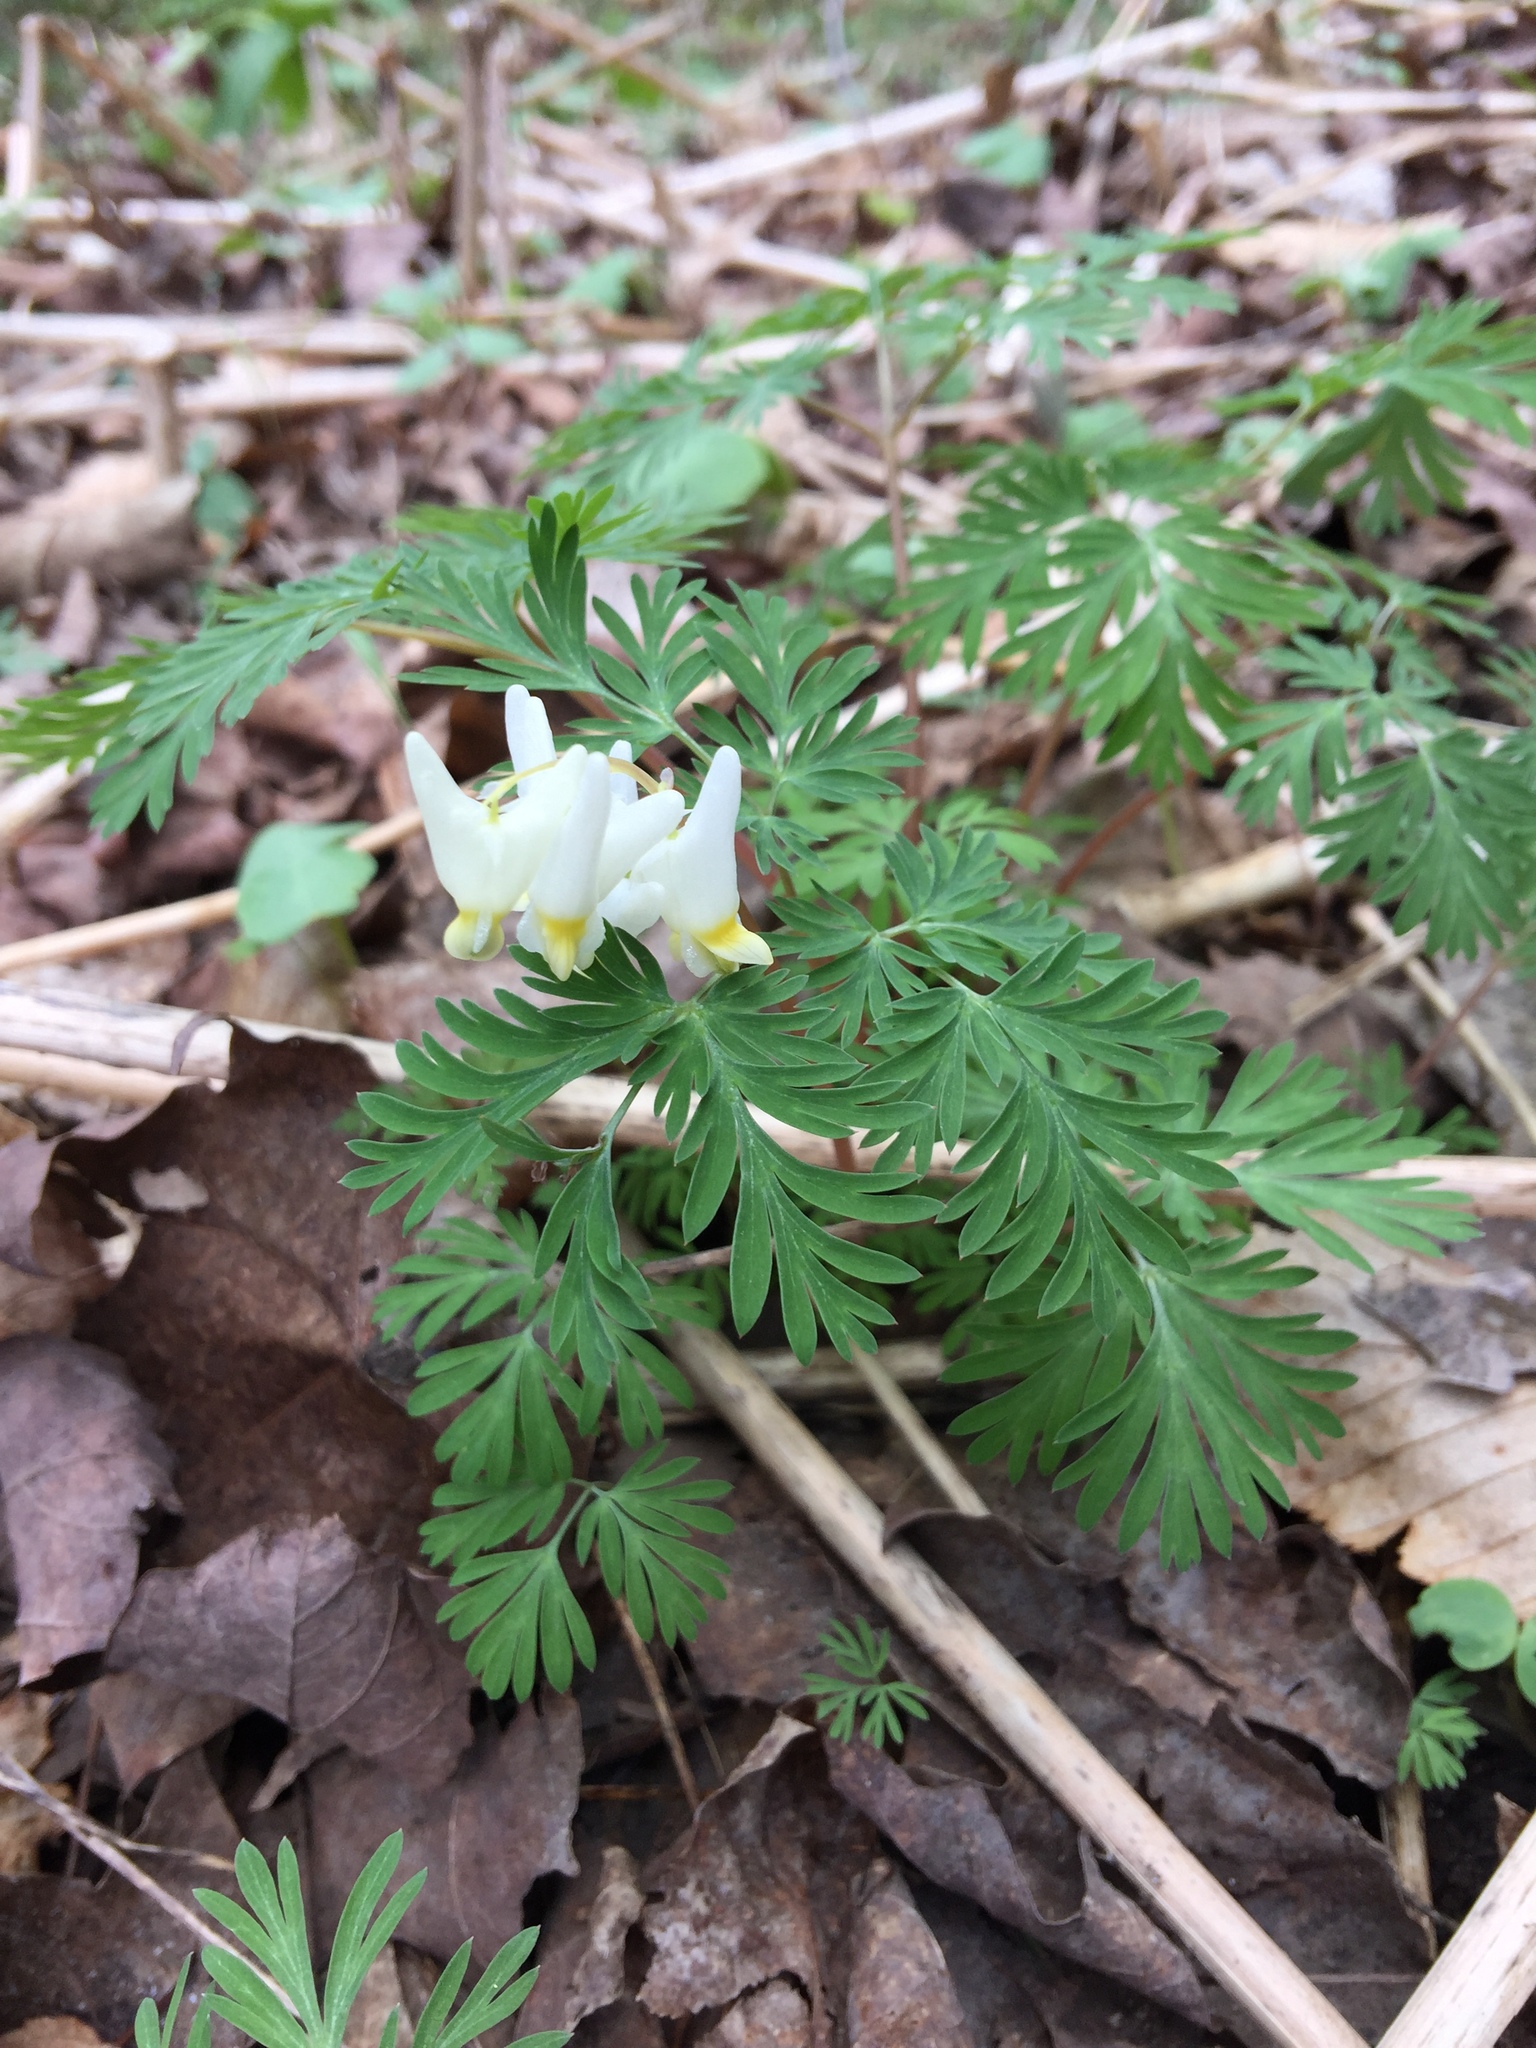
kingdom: Plantae
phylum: Tracheophyta
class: Magnoliopsida
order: Ranunculales
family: Papaveraceae
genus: Dicentra
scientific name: Dicentra cucullaria
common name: Dutchman's breeches
